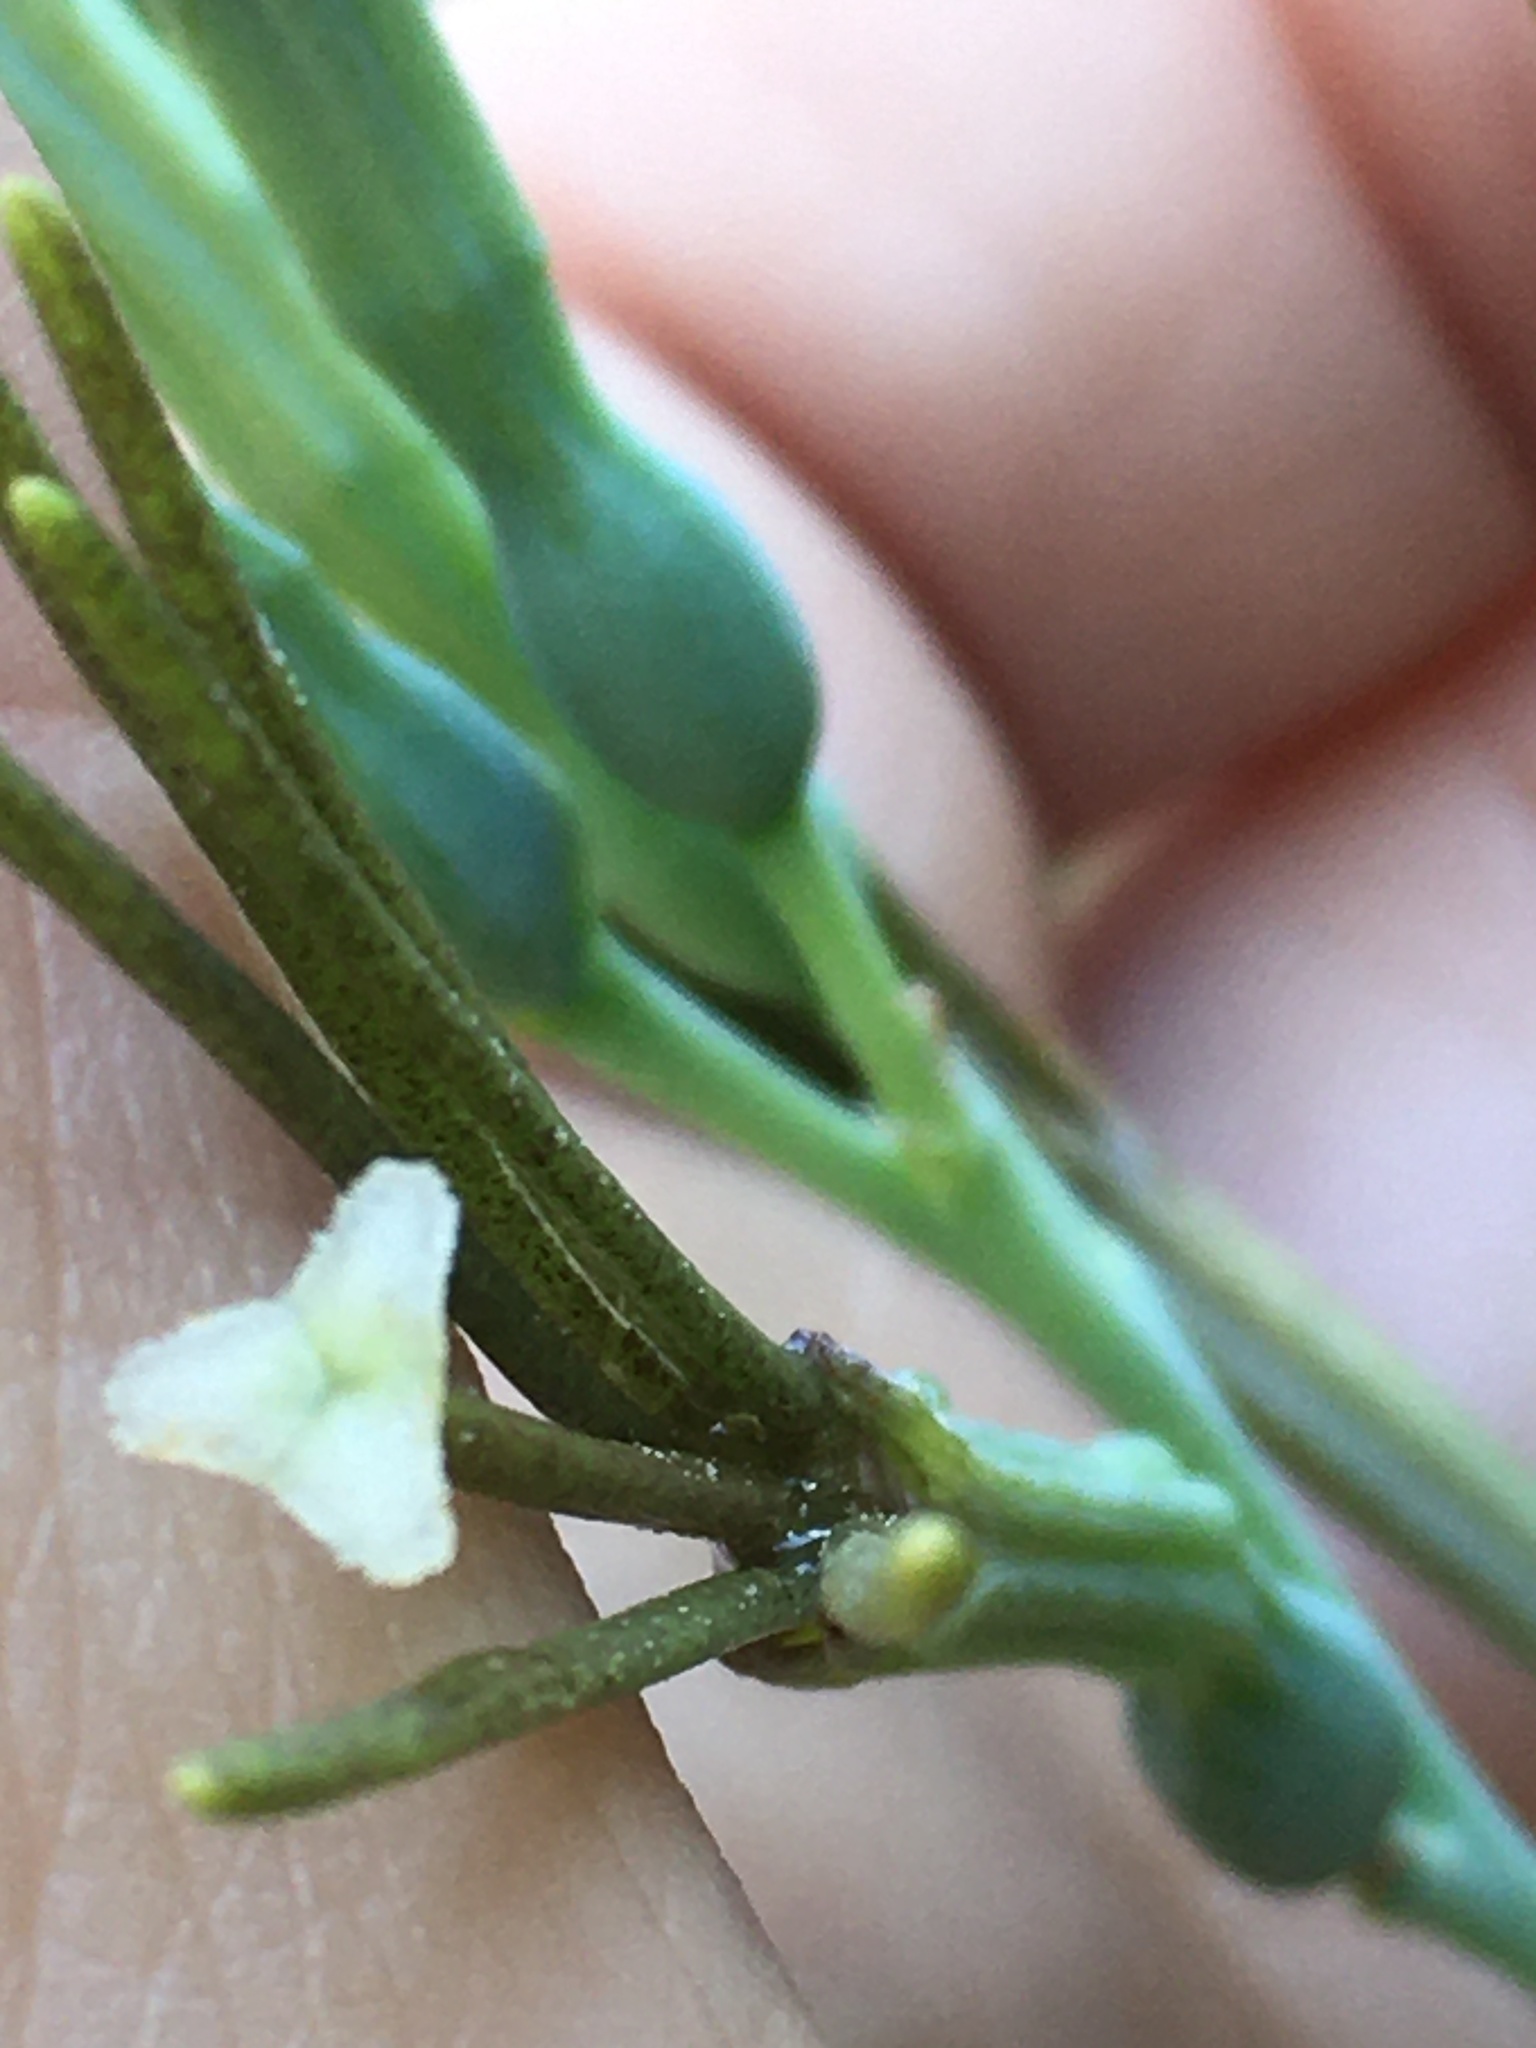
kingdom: Plantae
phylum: Tracheophyta
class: Liliopsida
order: Asparagales
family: Asparagaceae
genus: Agave
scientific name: Agave virginica
